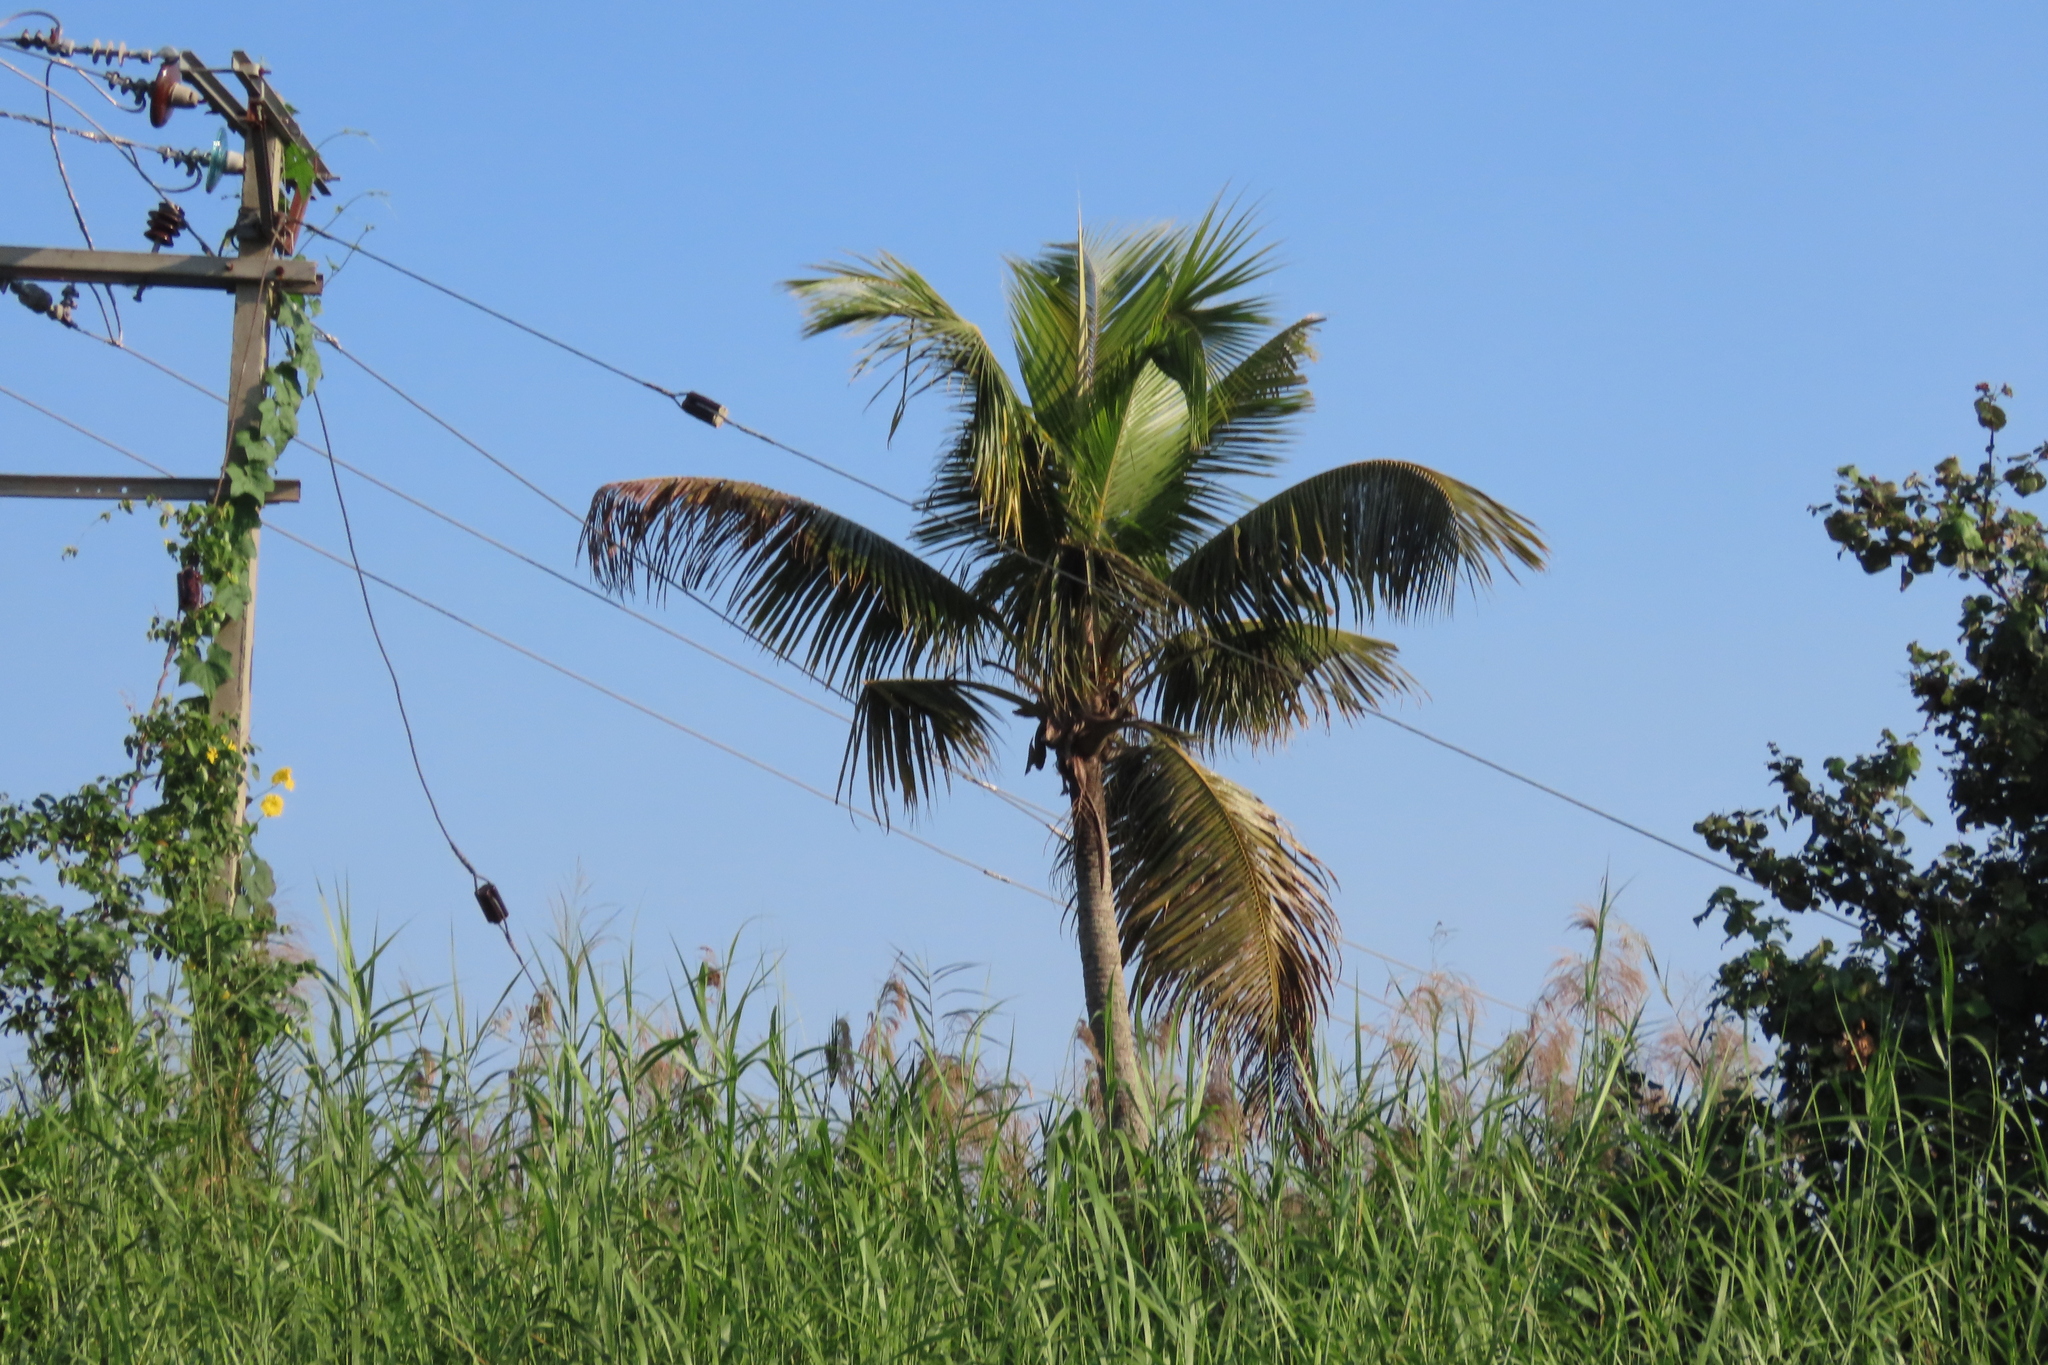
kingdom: Plantae
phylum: Tracheophyta
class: Liliopsida
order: Arecales
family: Arecaceae
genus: Cocos
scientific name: Cocos nucifera
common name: Coconut palm
